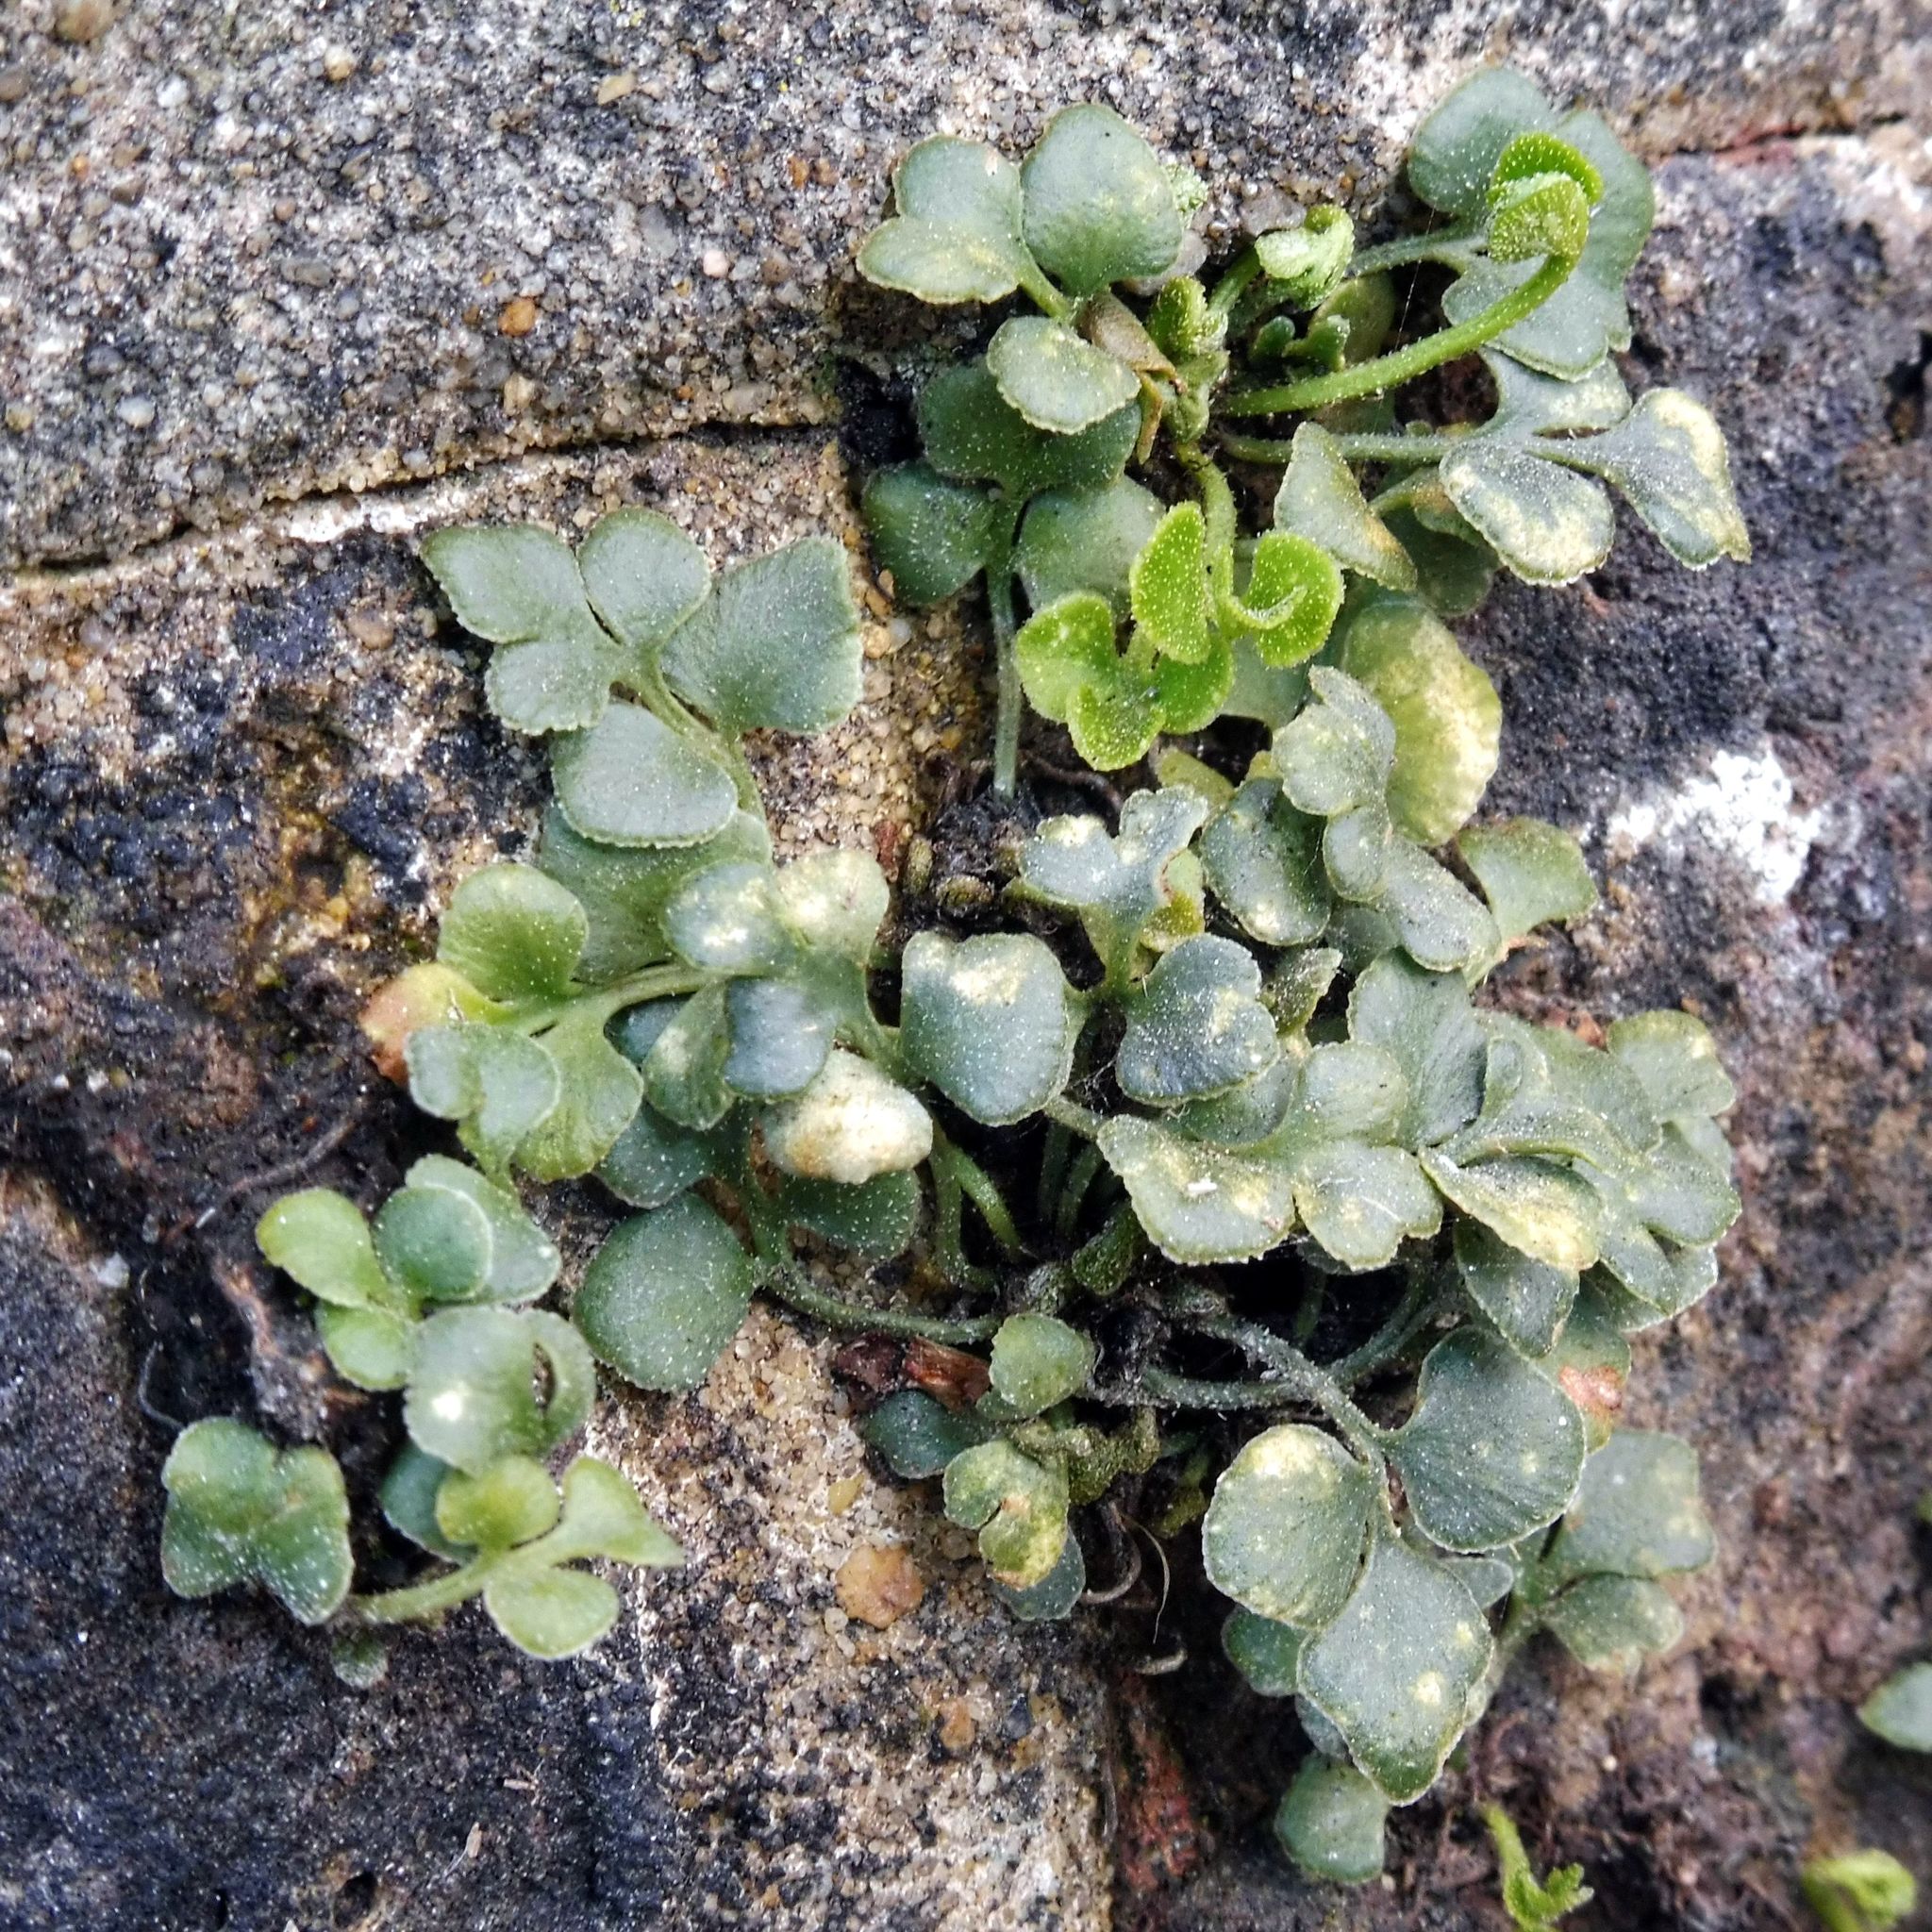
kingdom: Plantae
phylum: Tracheophyta
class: Polypodiopsida
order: Polypodiales
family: Aspleniaceae
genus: Asplenium
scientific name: Asplenium ruta-muraria
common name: Wall-rue
